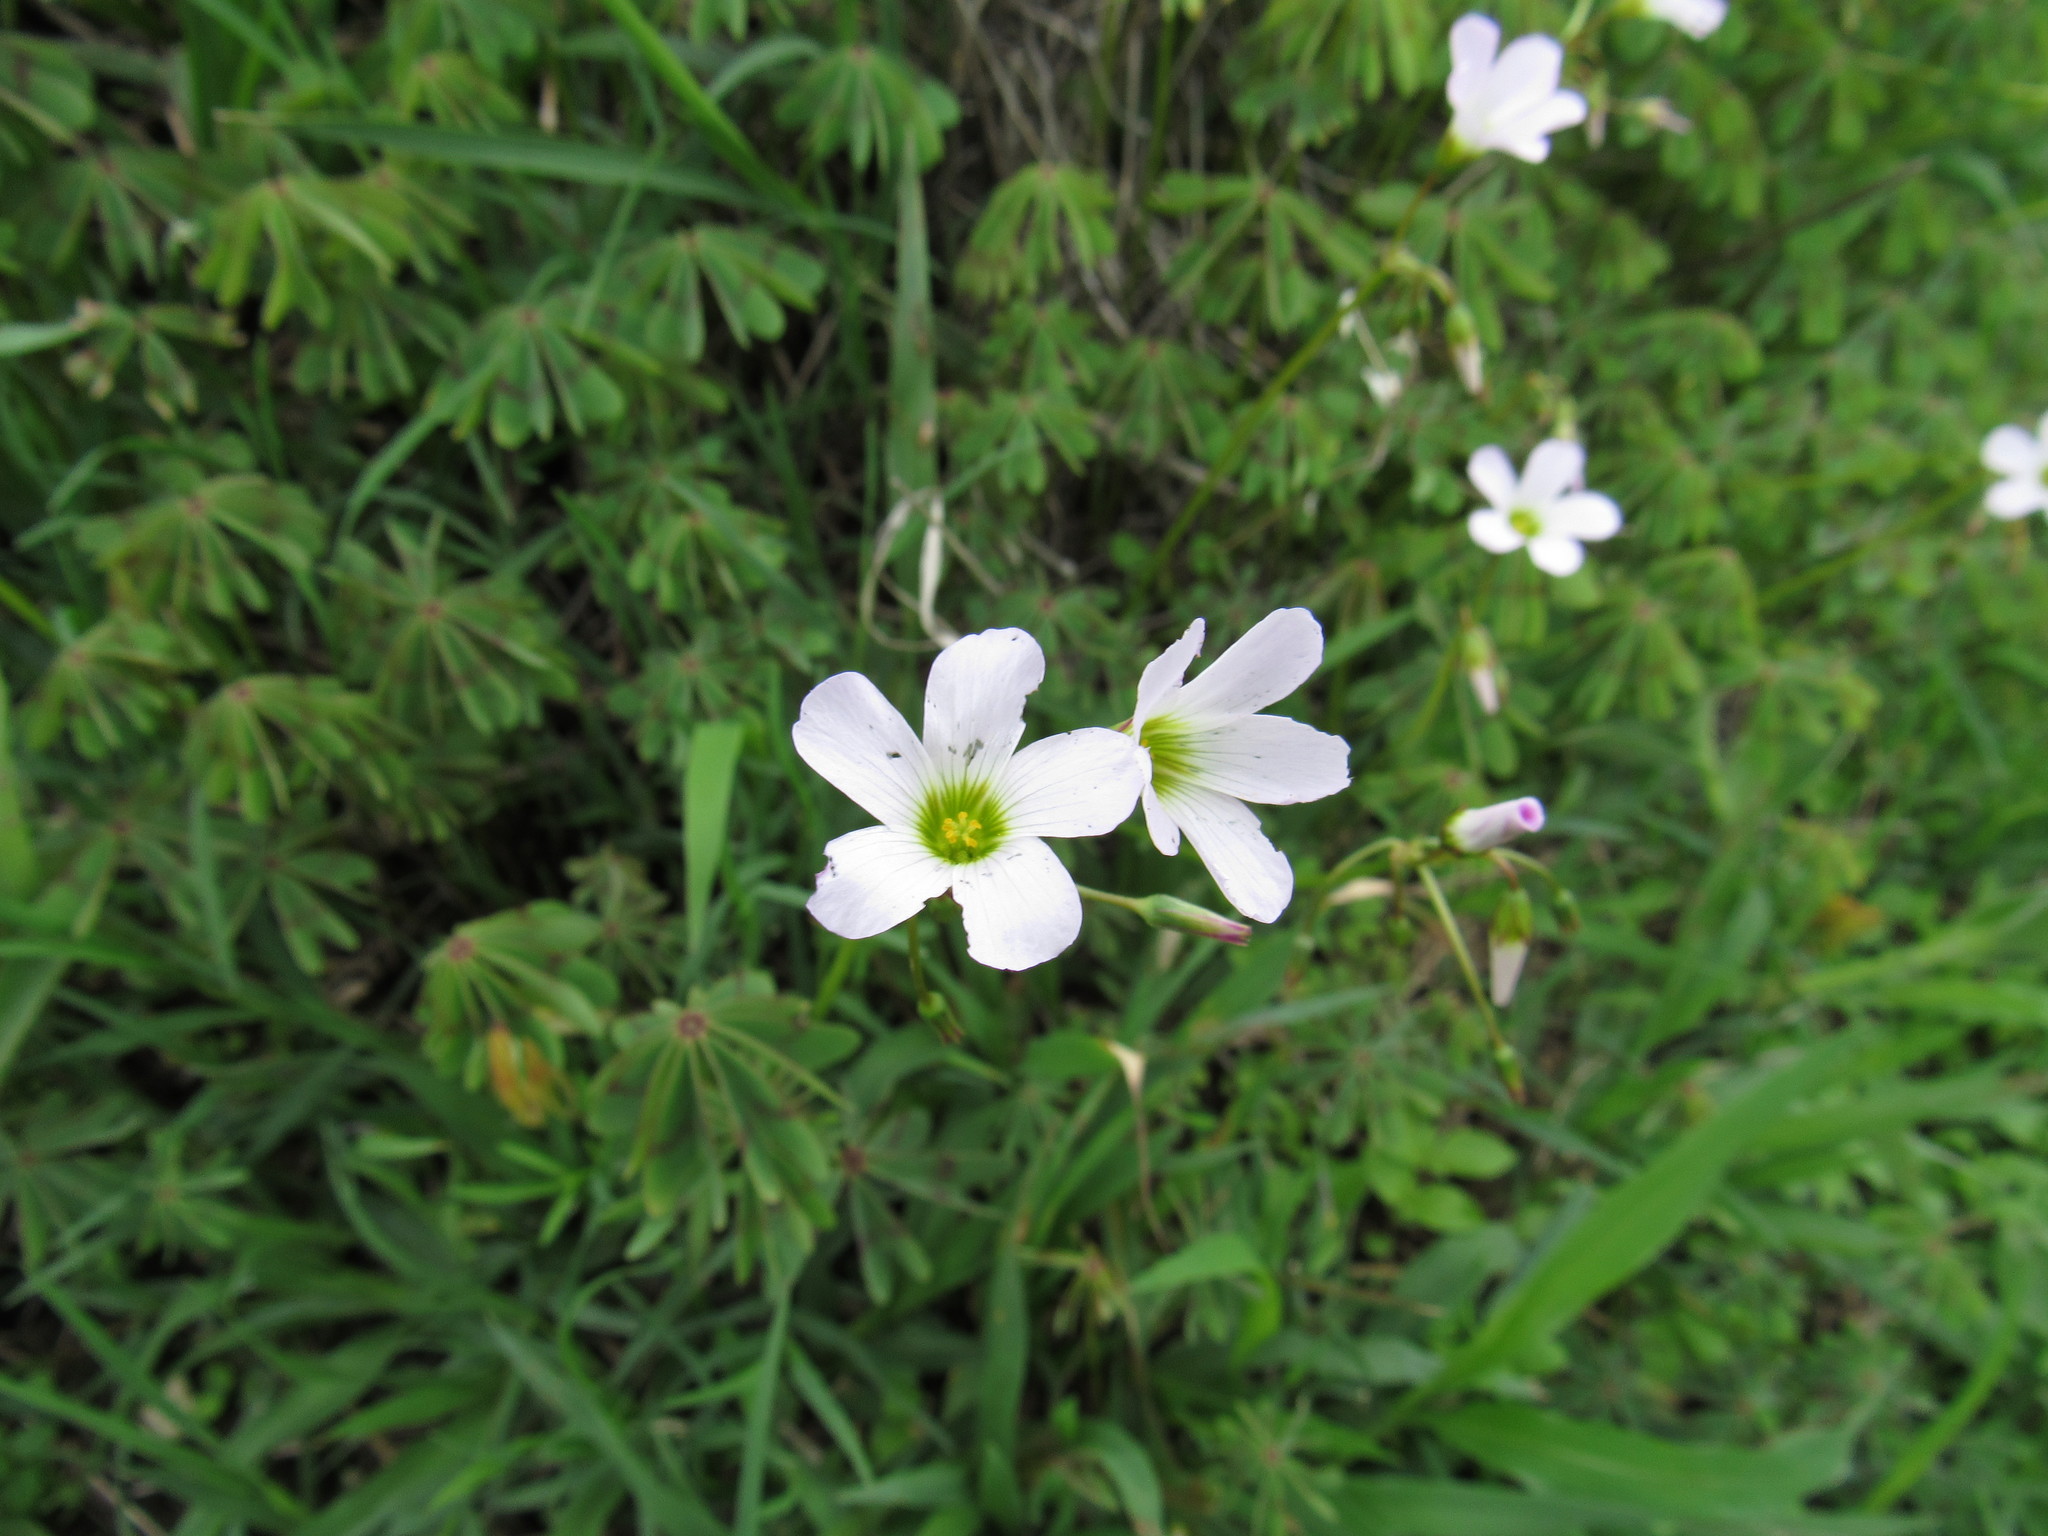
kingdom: Plantae
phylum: Tracheophyta
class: Magnoliopsida
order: Oxalidales
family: Oxalidaceae
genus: Oxalis
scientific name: Oxalis decaphylla
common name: Ten-leaved pink-sorrel
